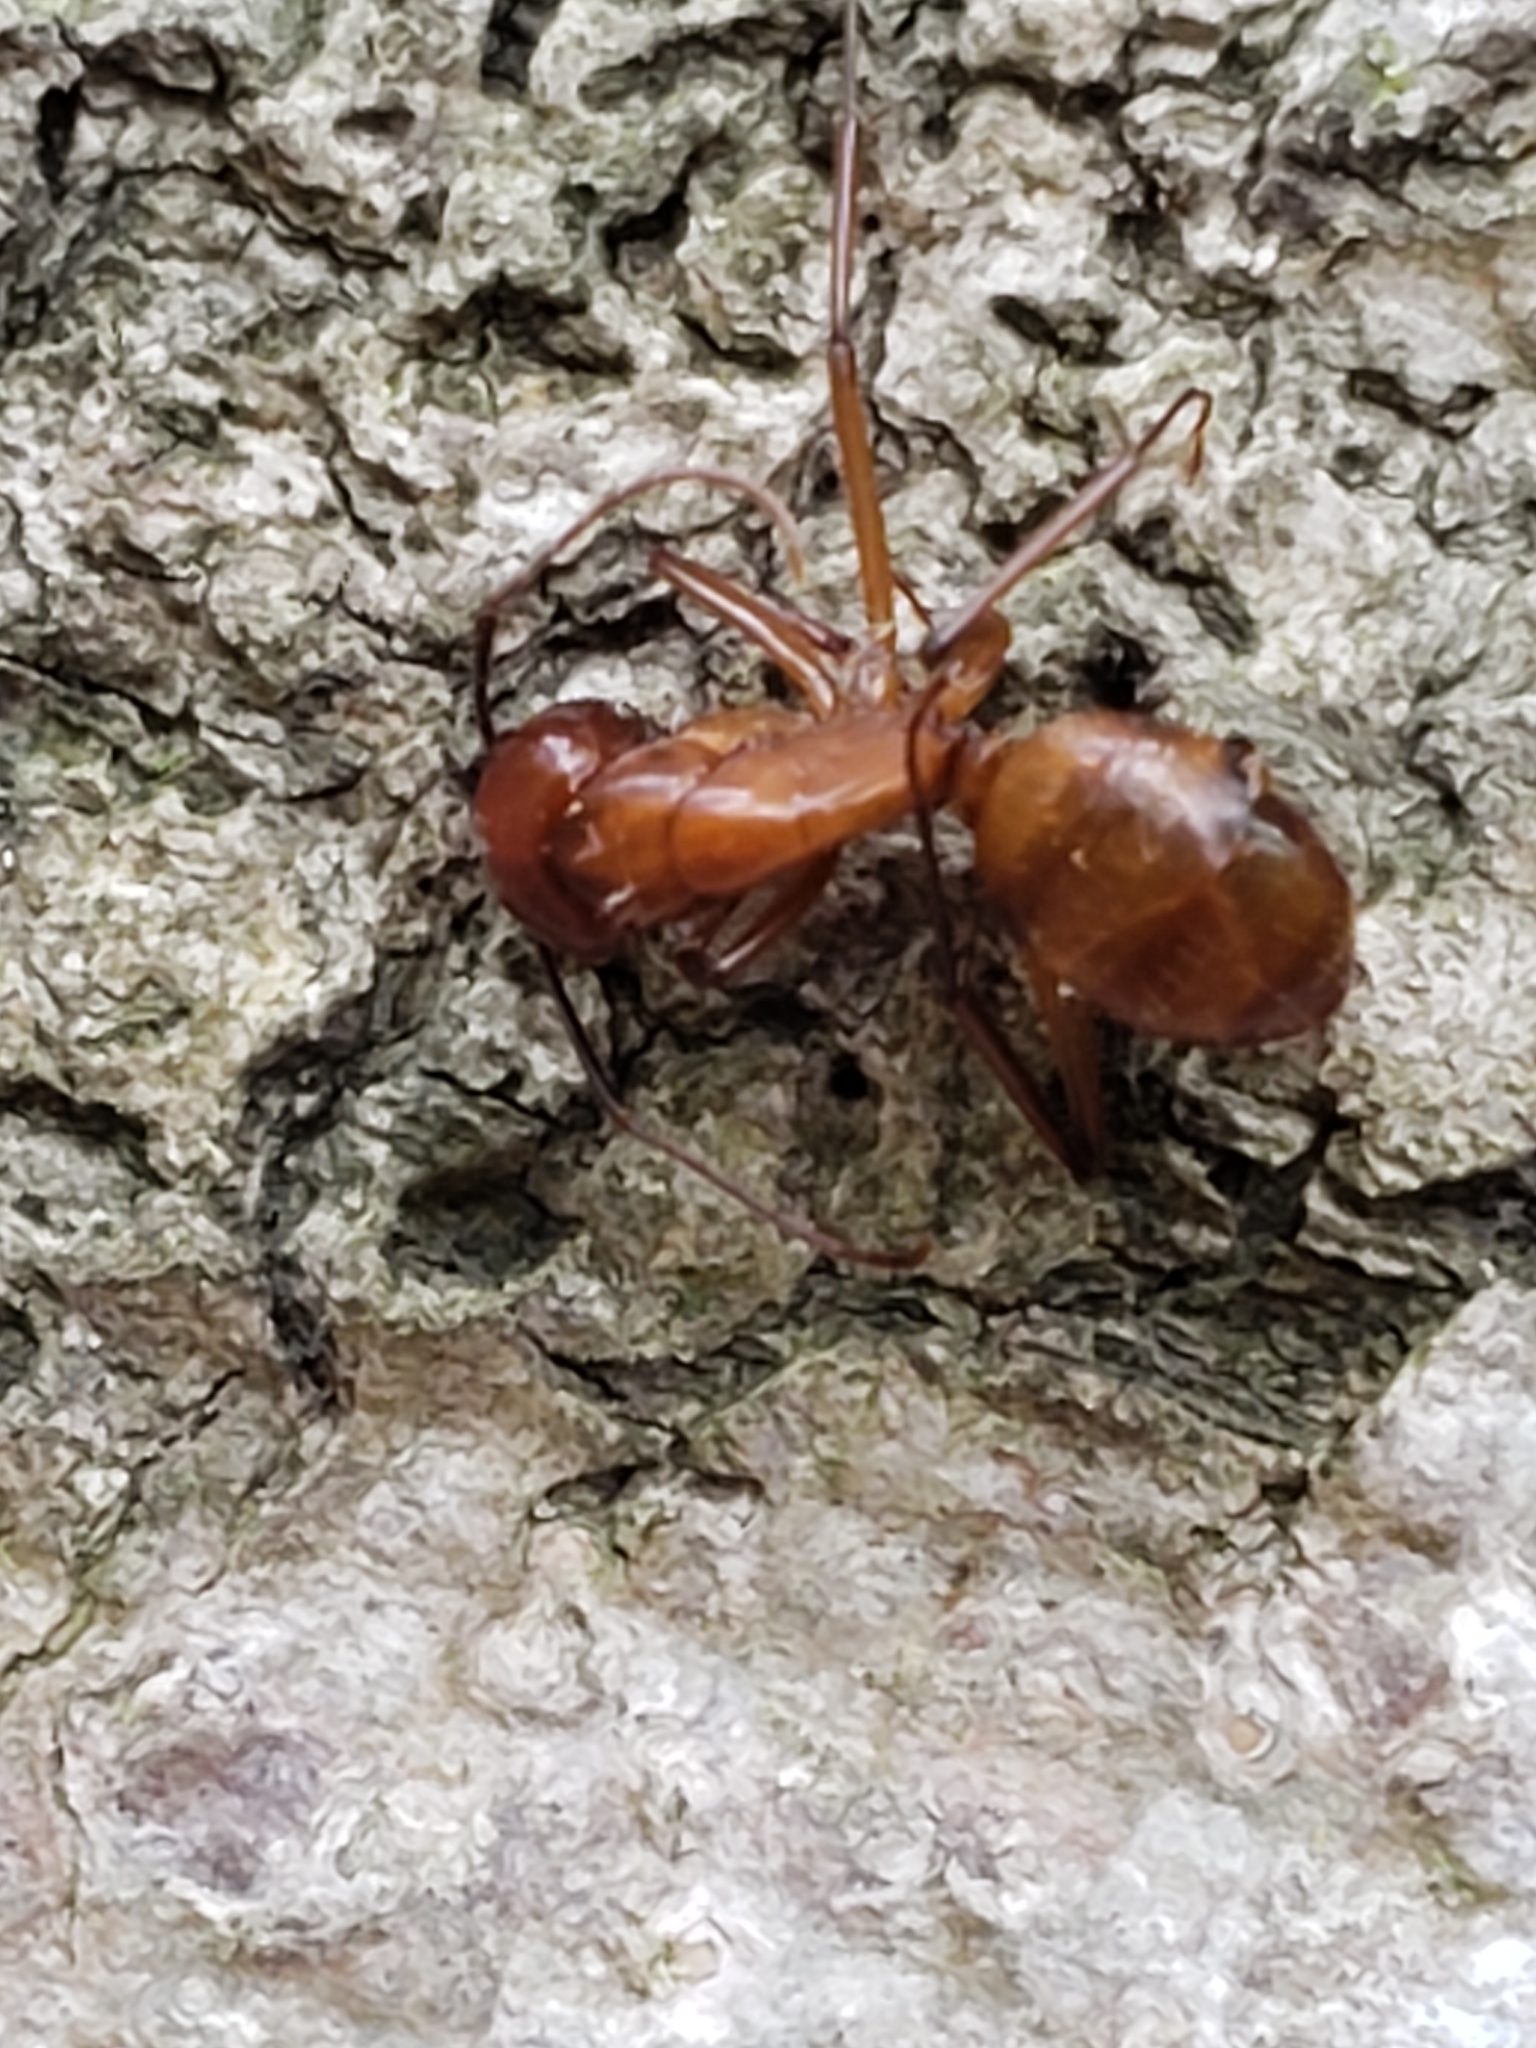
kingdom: Animalia
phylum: Arthropoda
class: Insecta
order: Hymenoptera
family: Formicidae
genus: Camponotus
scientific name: Camponotus castaneus
